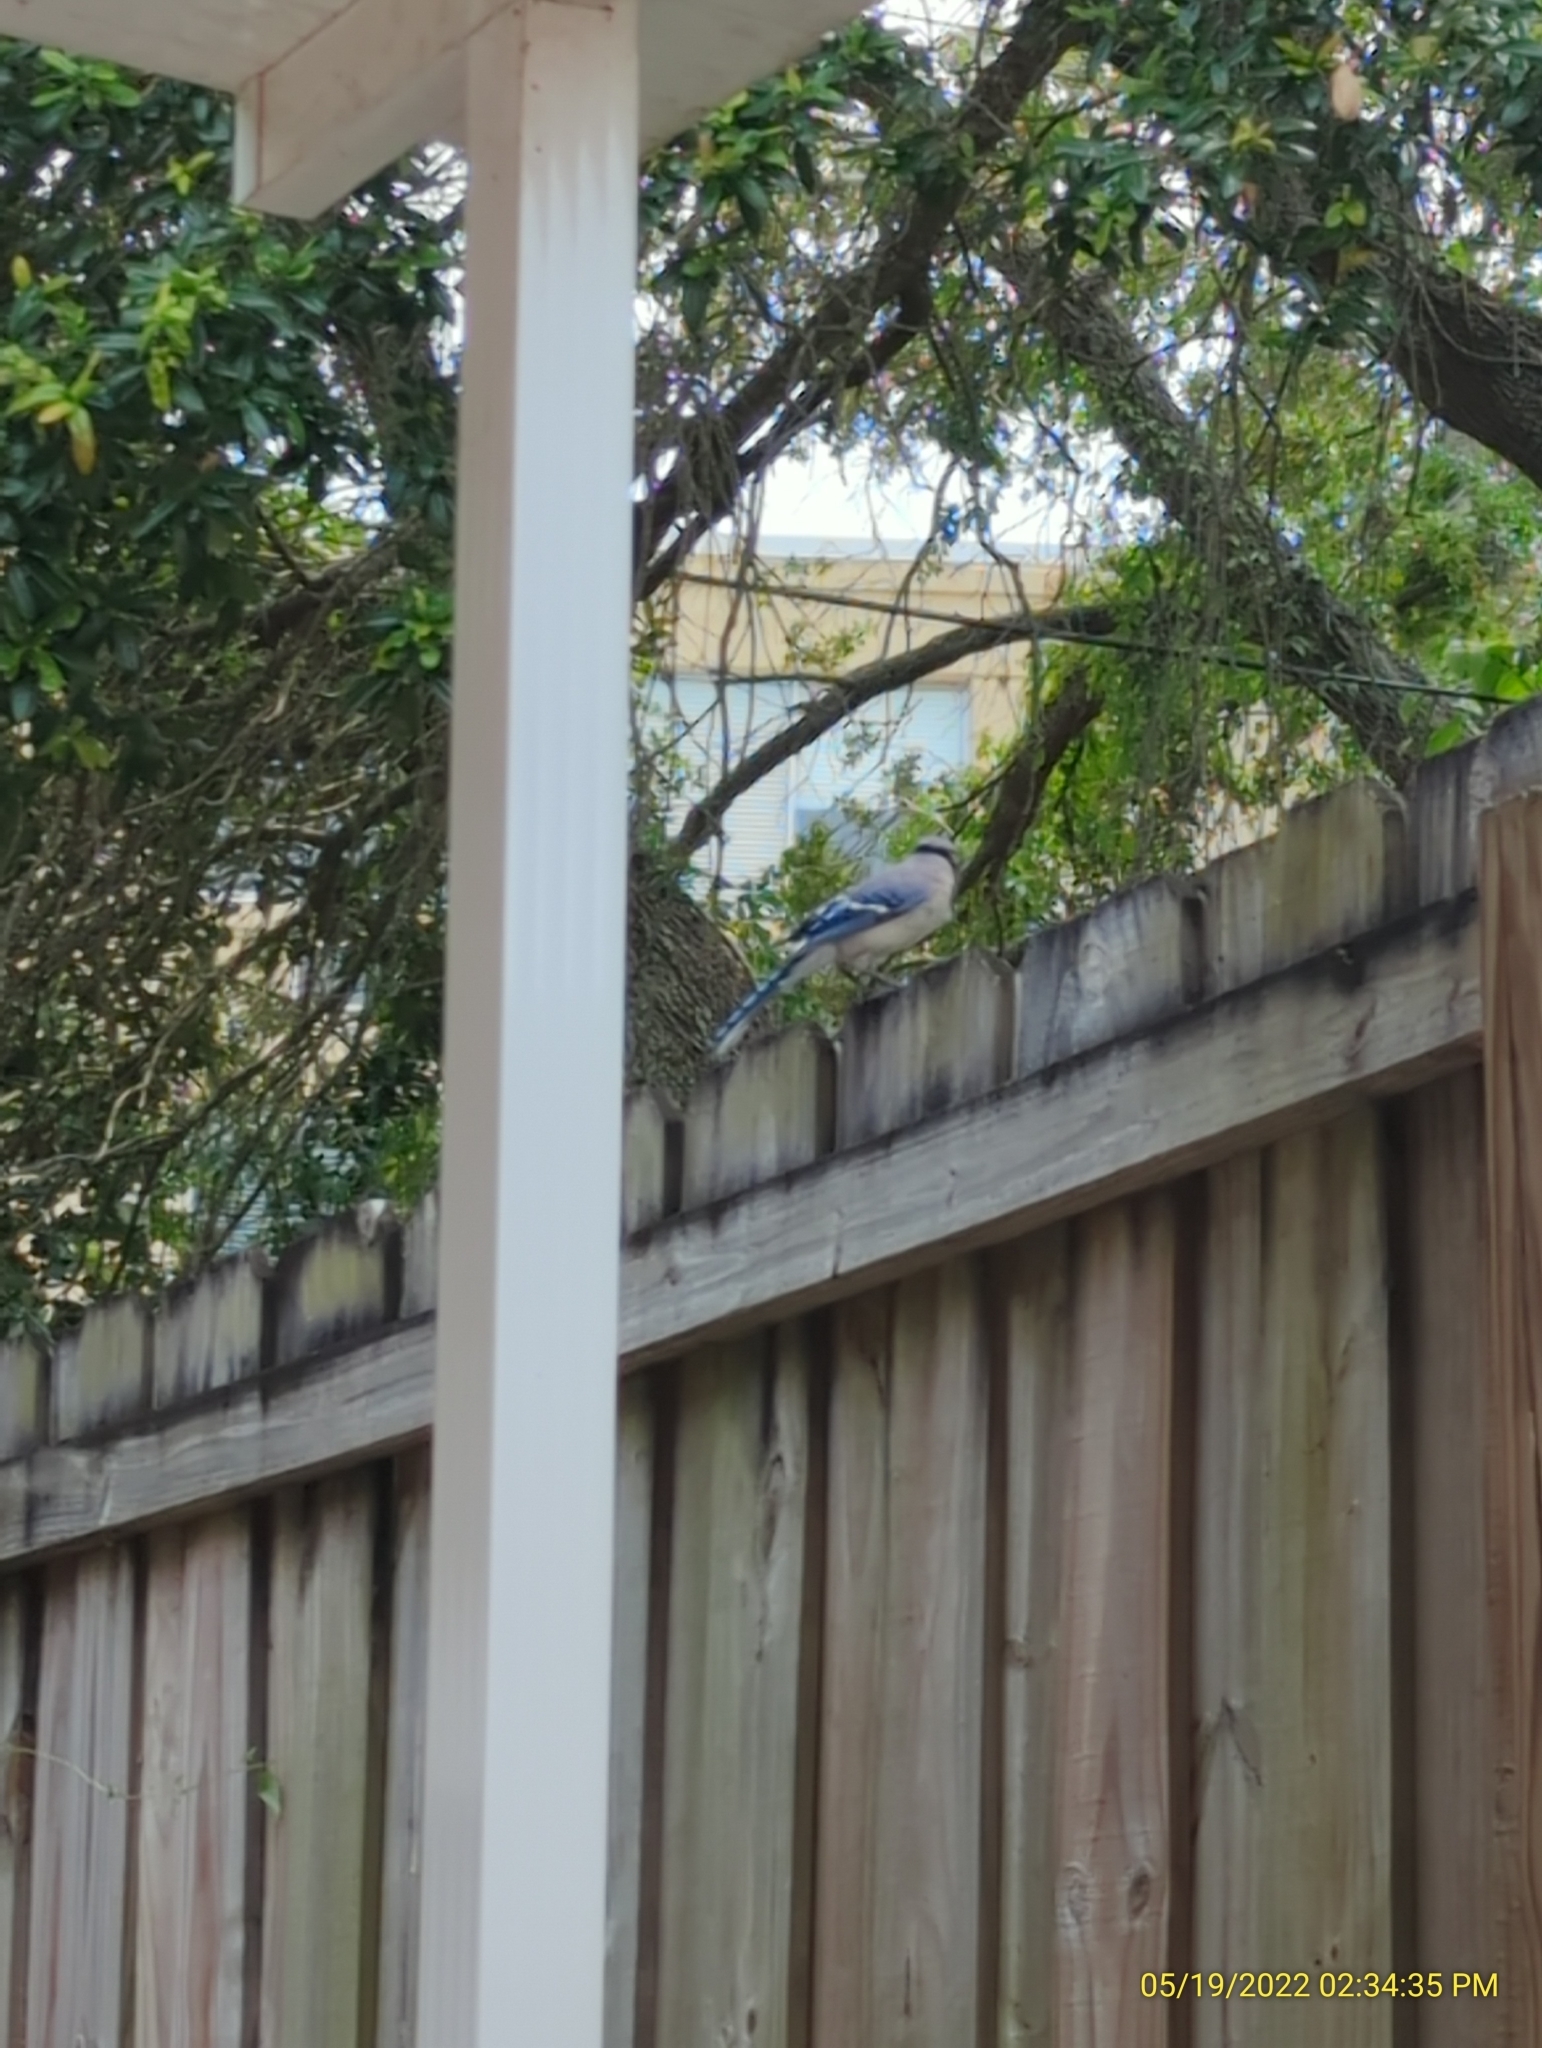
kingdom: Animalia
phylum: Chordata
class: Aves
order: Passeriformes
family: Corvidae
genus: Cyanocitta
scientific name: Cyanocitta cristata
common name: Blue jay
